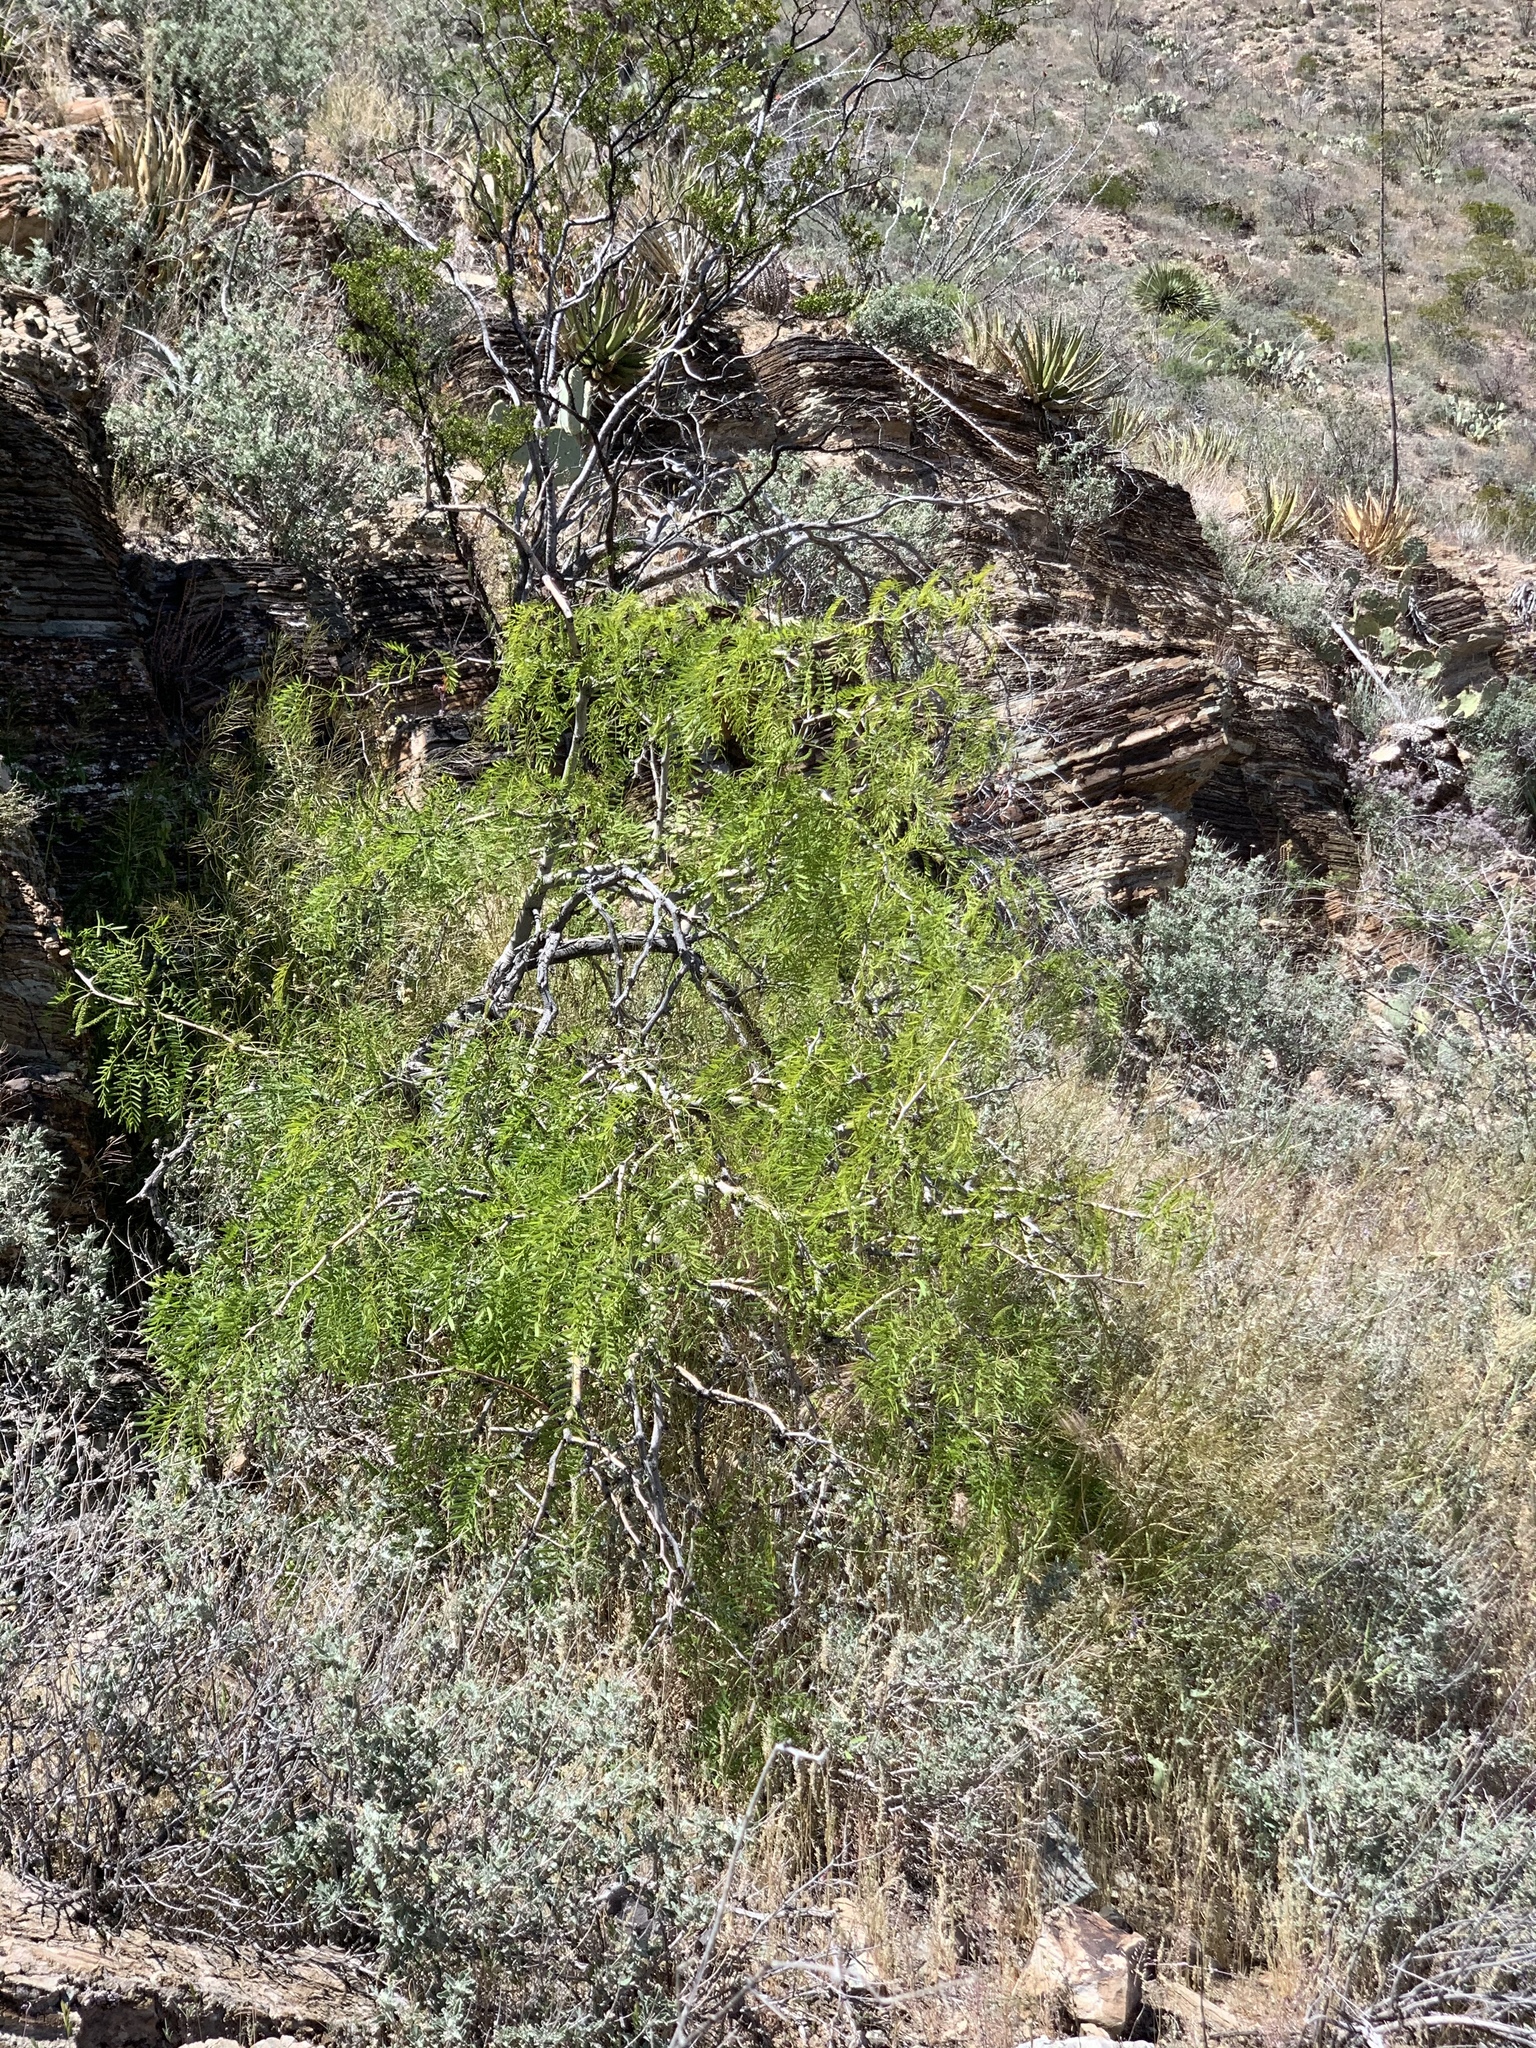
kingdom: Plantae
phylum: Tracheophyta
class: Magnoliopsida
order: Fabales
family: Fabaceae
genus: Prosopis
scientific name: Prosopis glandulosa
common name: Honey mesquite
